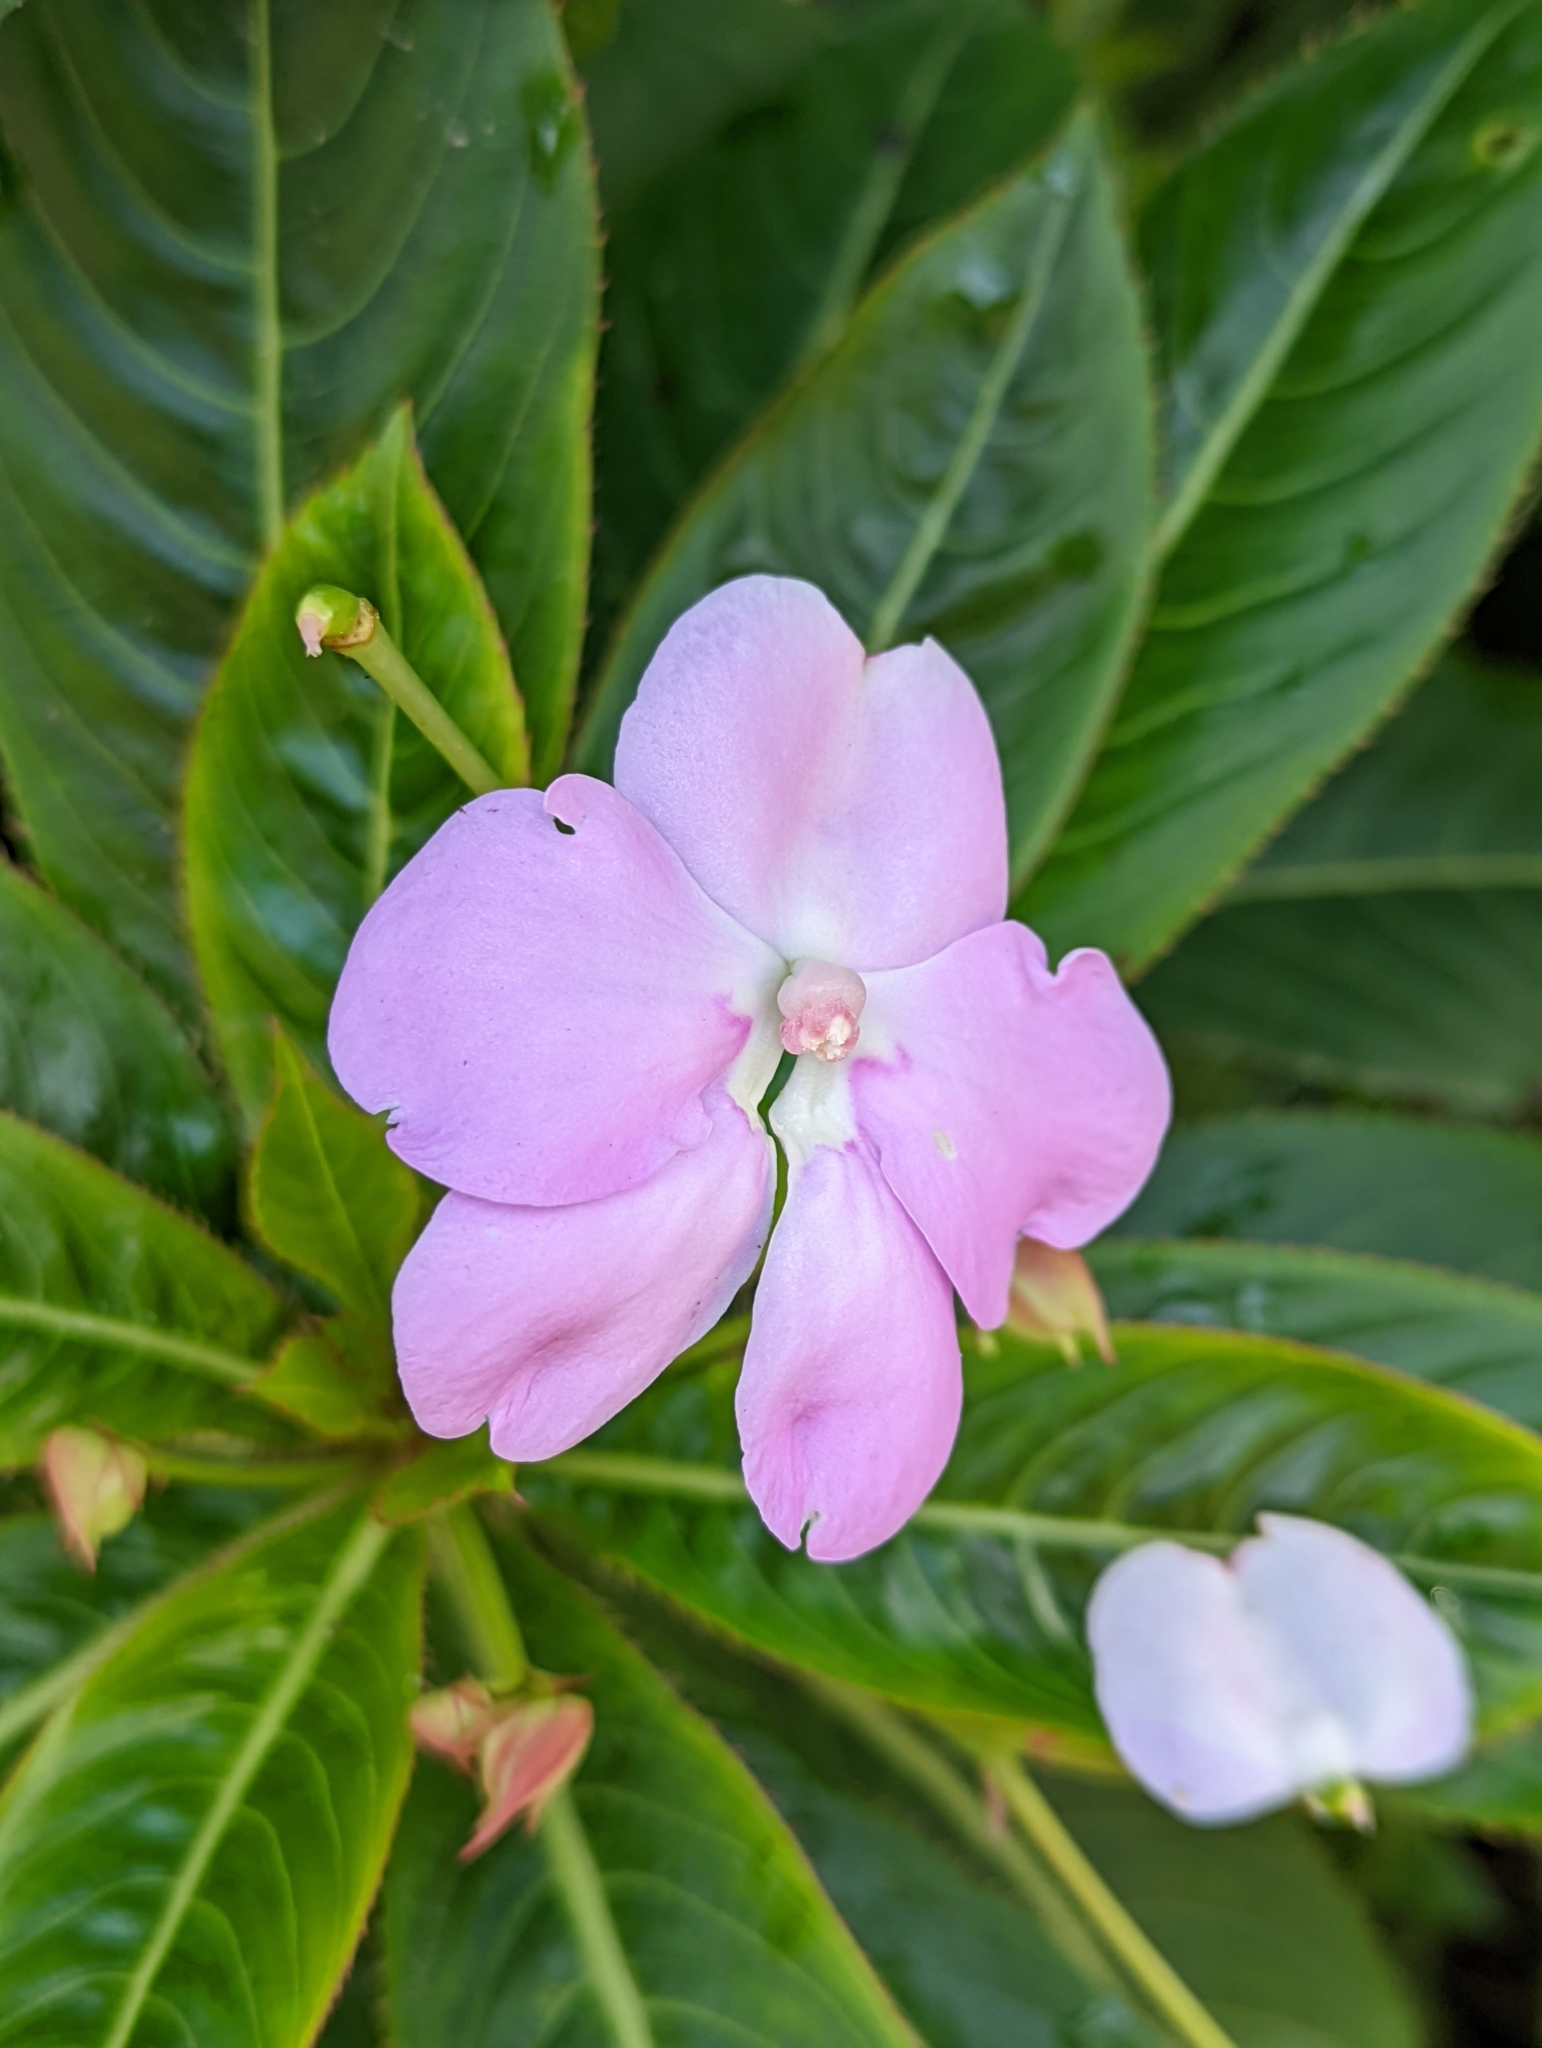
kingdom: Plantae
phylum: Tracheophyta
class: Magnoliopsida
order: Ericales
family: Balsaminaceae
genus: Impatiens
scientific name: Impatiens sodenii
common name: Oliver's touch-me-not
